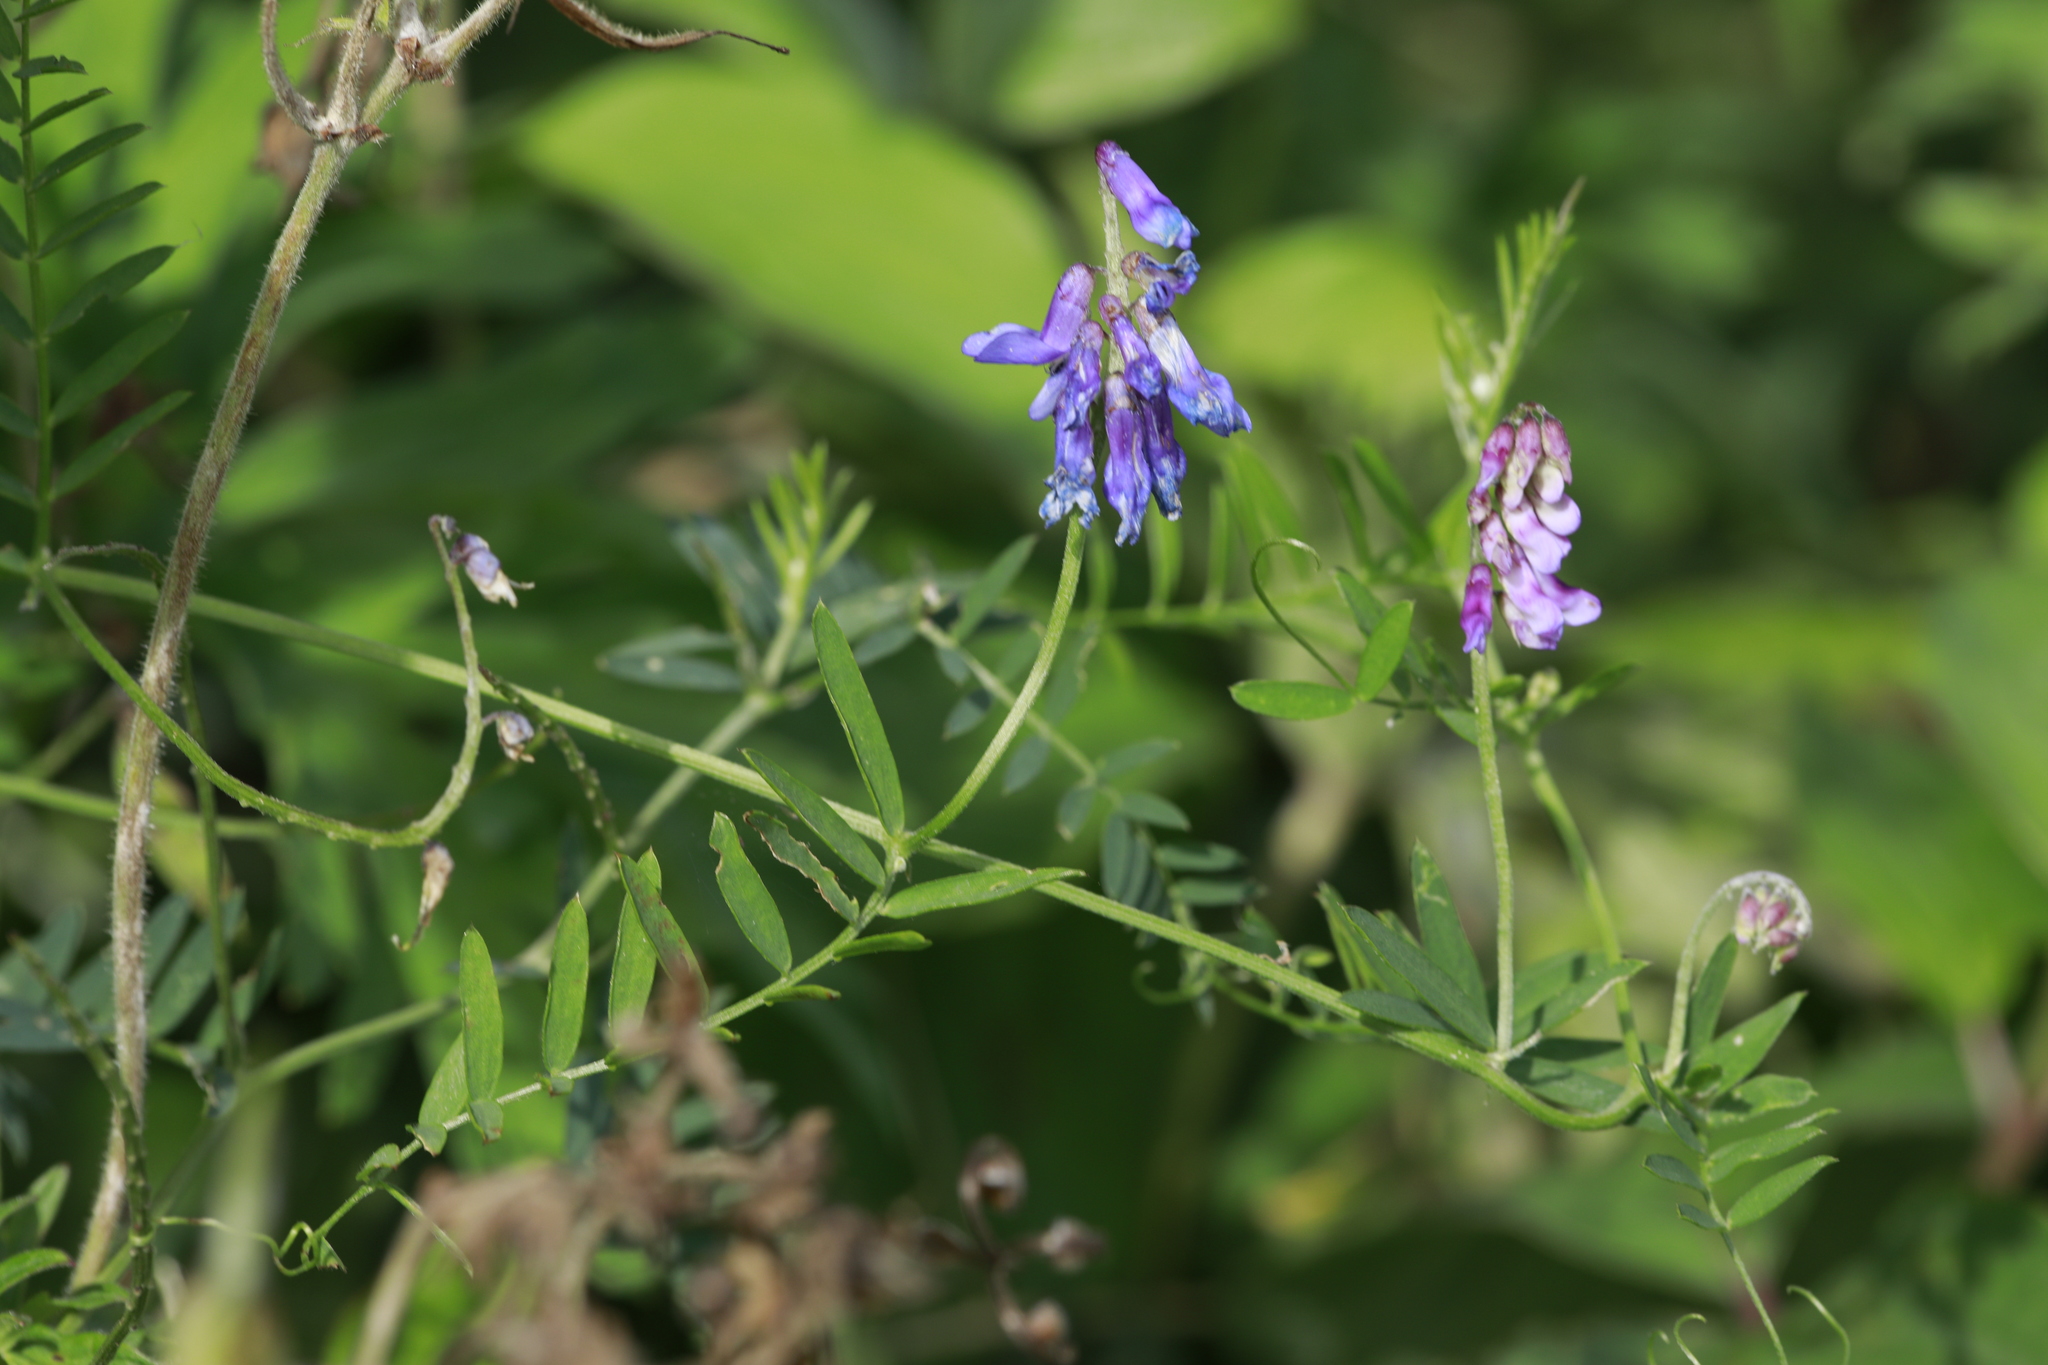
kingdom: Plantae
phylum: Tracheophyta
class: Magnoliopsida
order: Fabales
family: Fabaceae
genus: Vicia
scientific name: Vicia cracca
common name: Bird vetch
